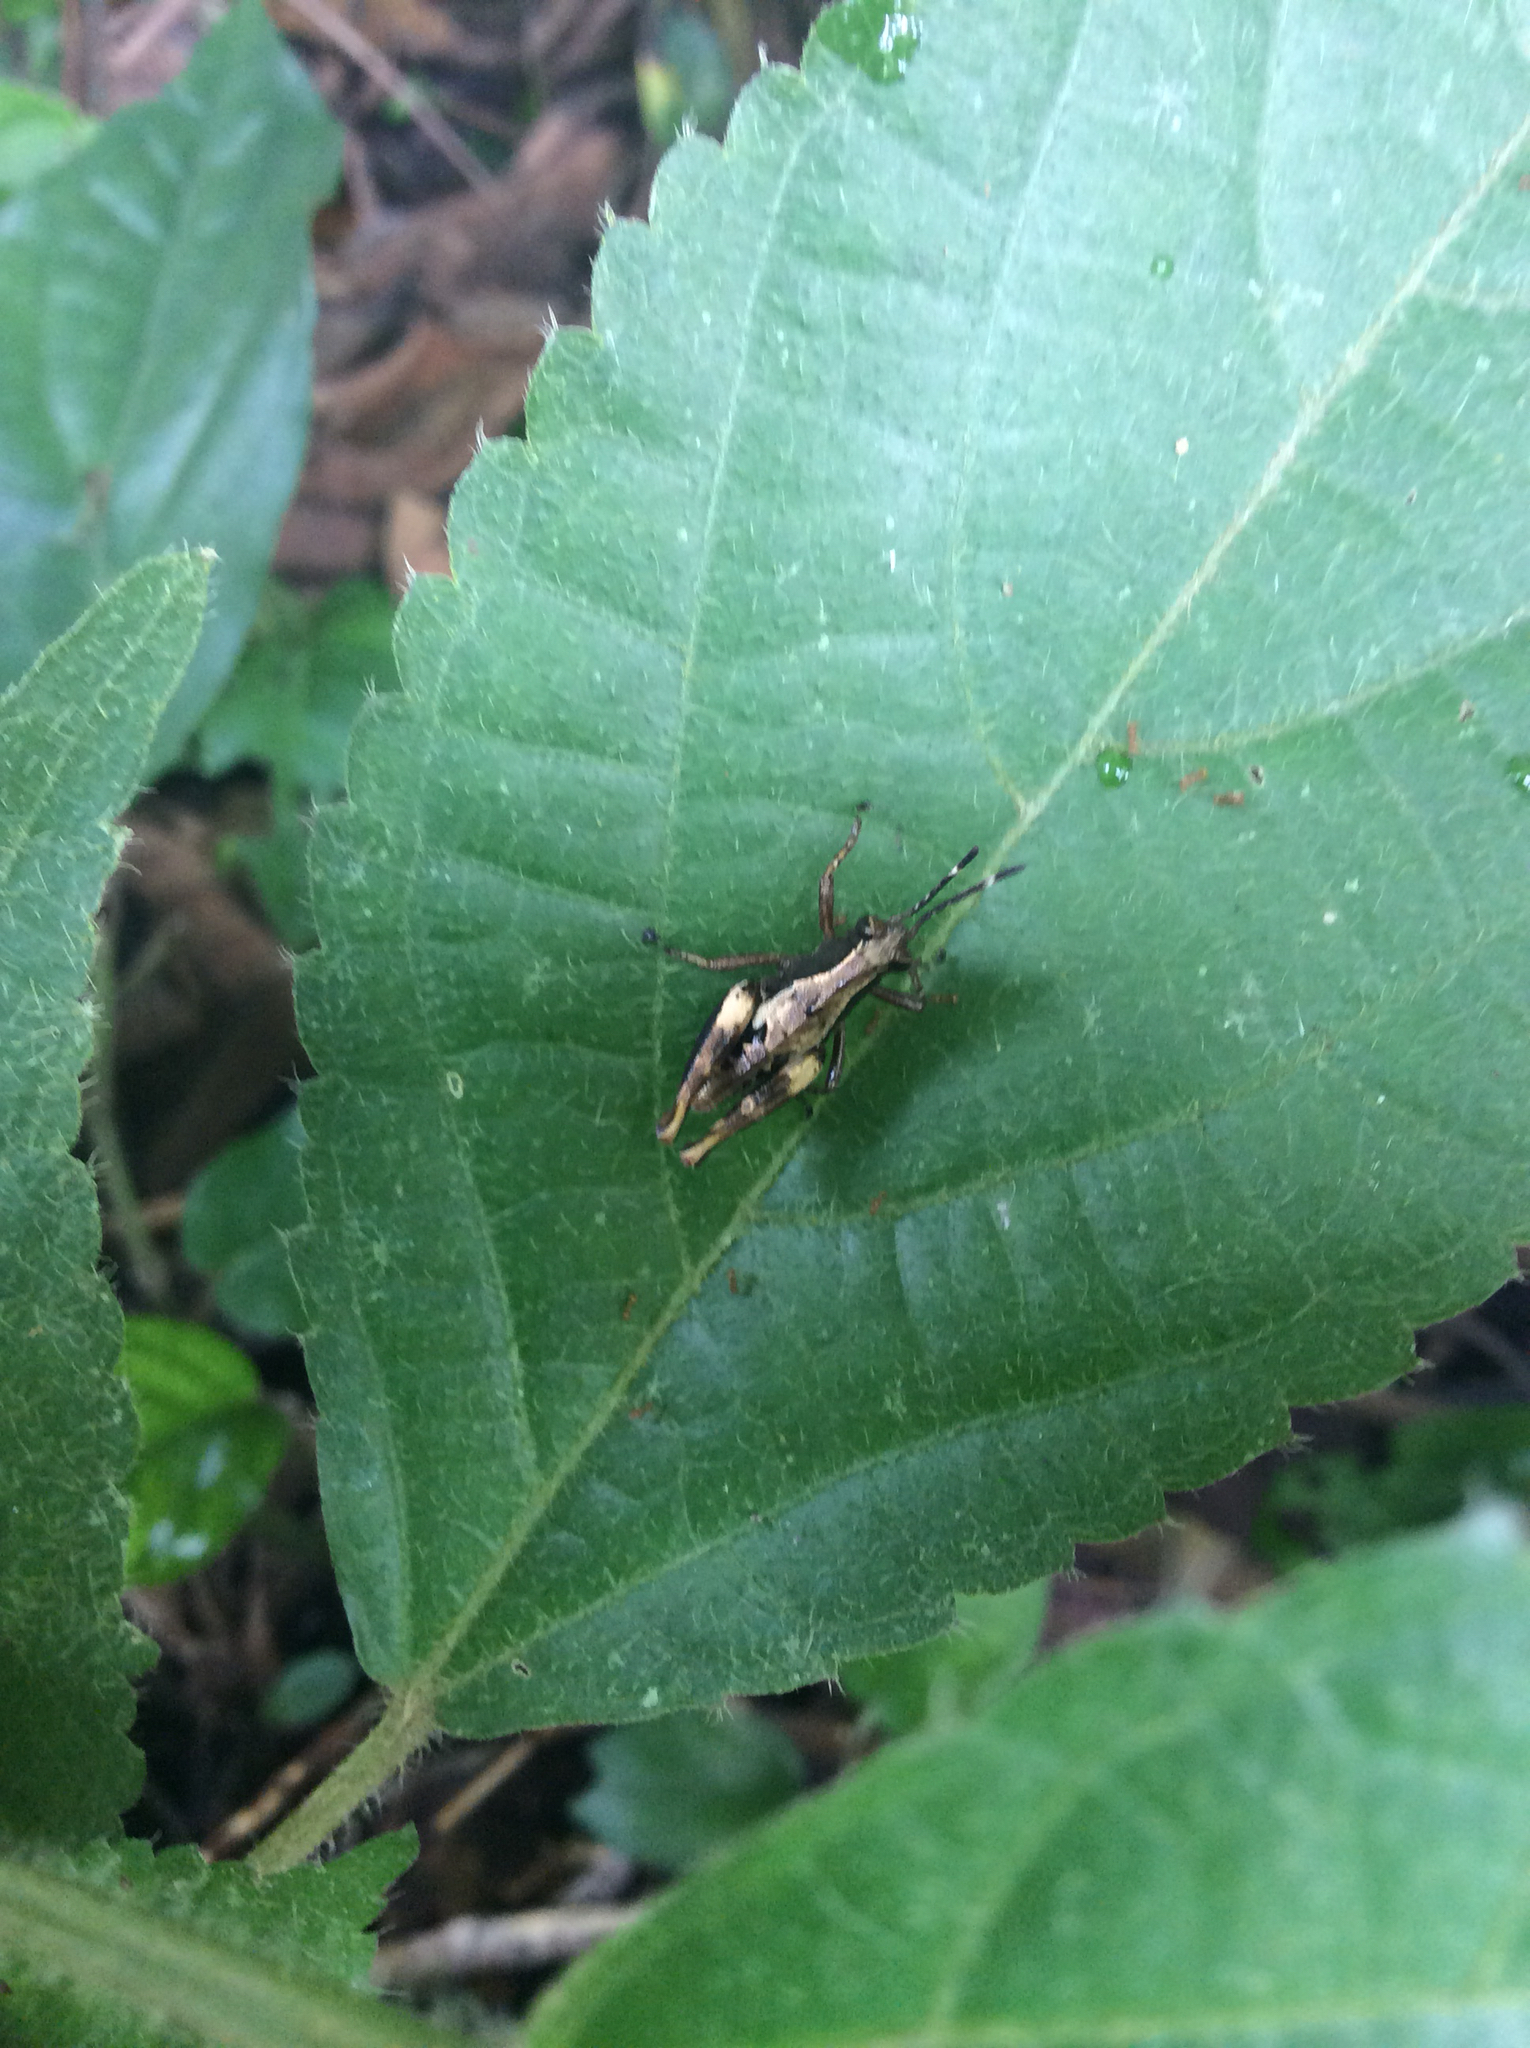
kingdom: Animalia
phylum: Arthropoda
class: Insecta
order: Orthoptera
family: Acrididae
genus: Microtylopteryx
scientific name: Microtylopteryx fusiformis
